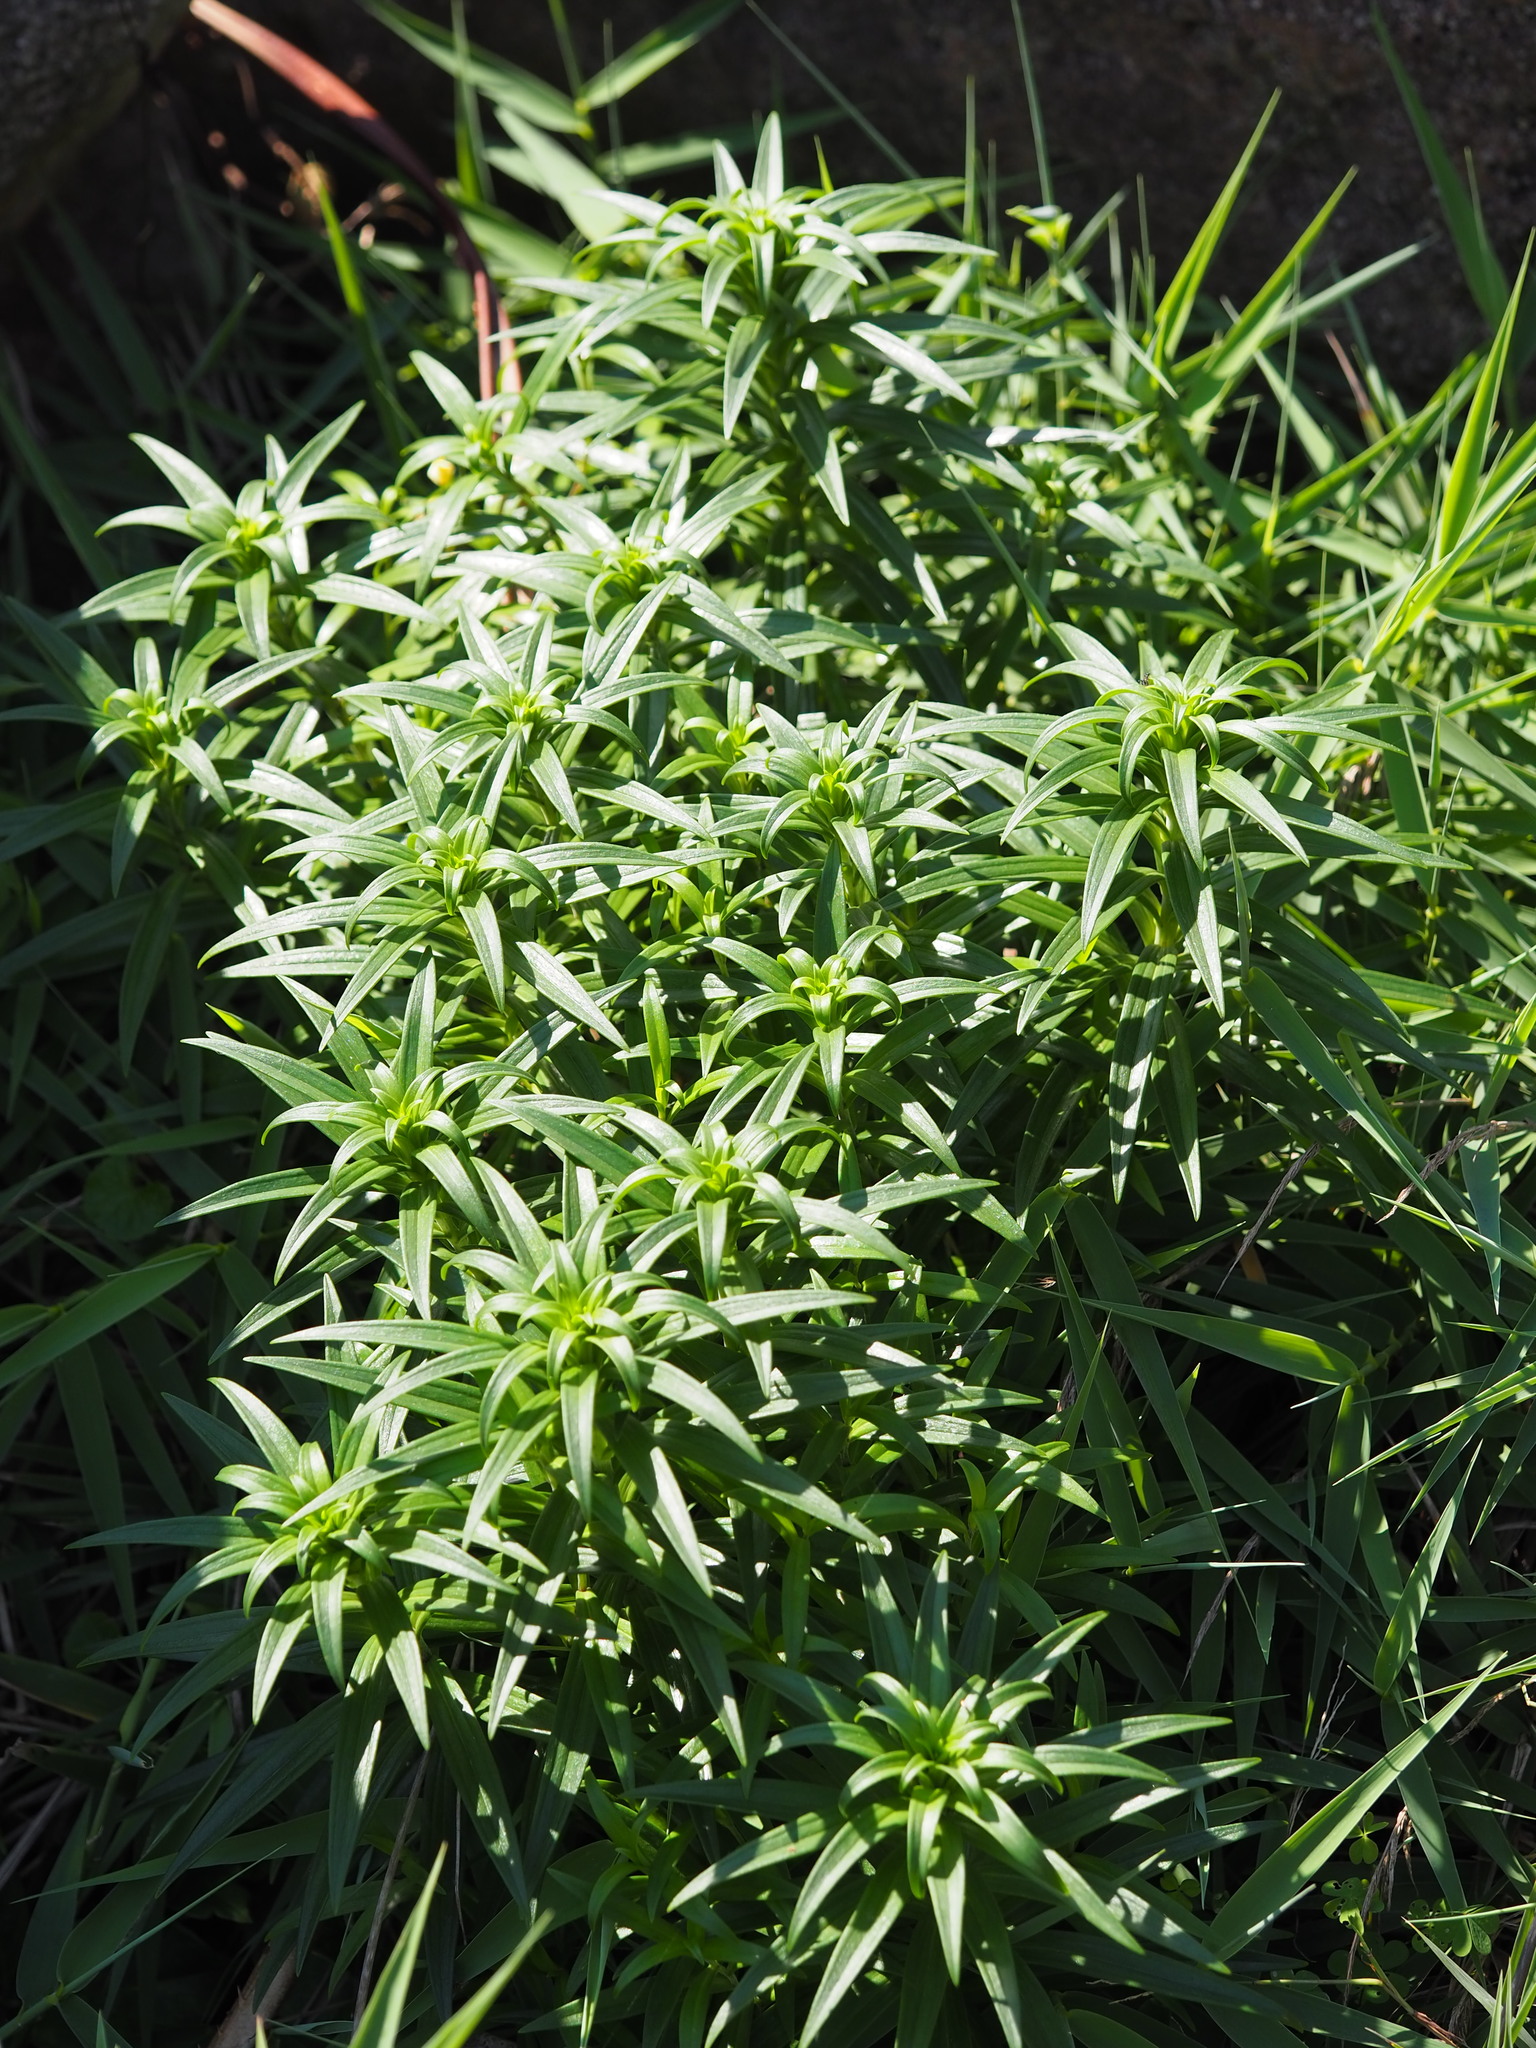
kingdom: Plantae
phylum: Tracheophyta
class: Liliopsida
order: Liliales
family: Liliaceae
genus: Lilium
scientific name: Lilium longiflorum
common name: Easter lily
